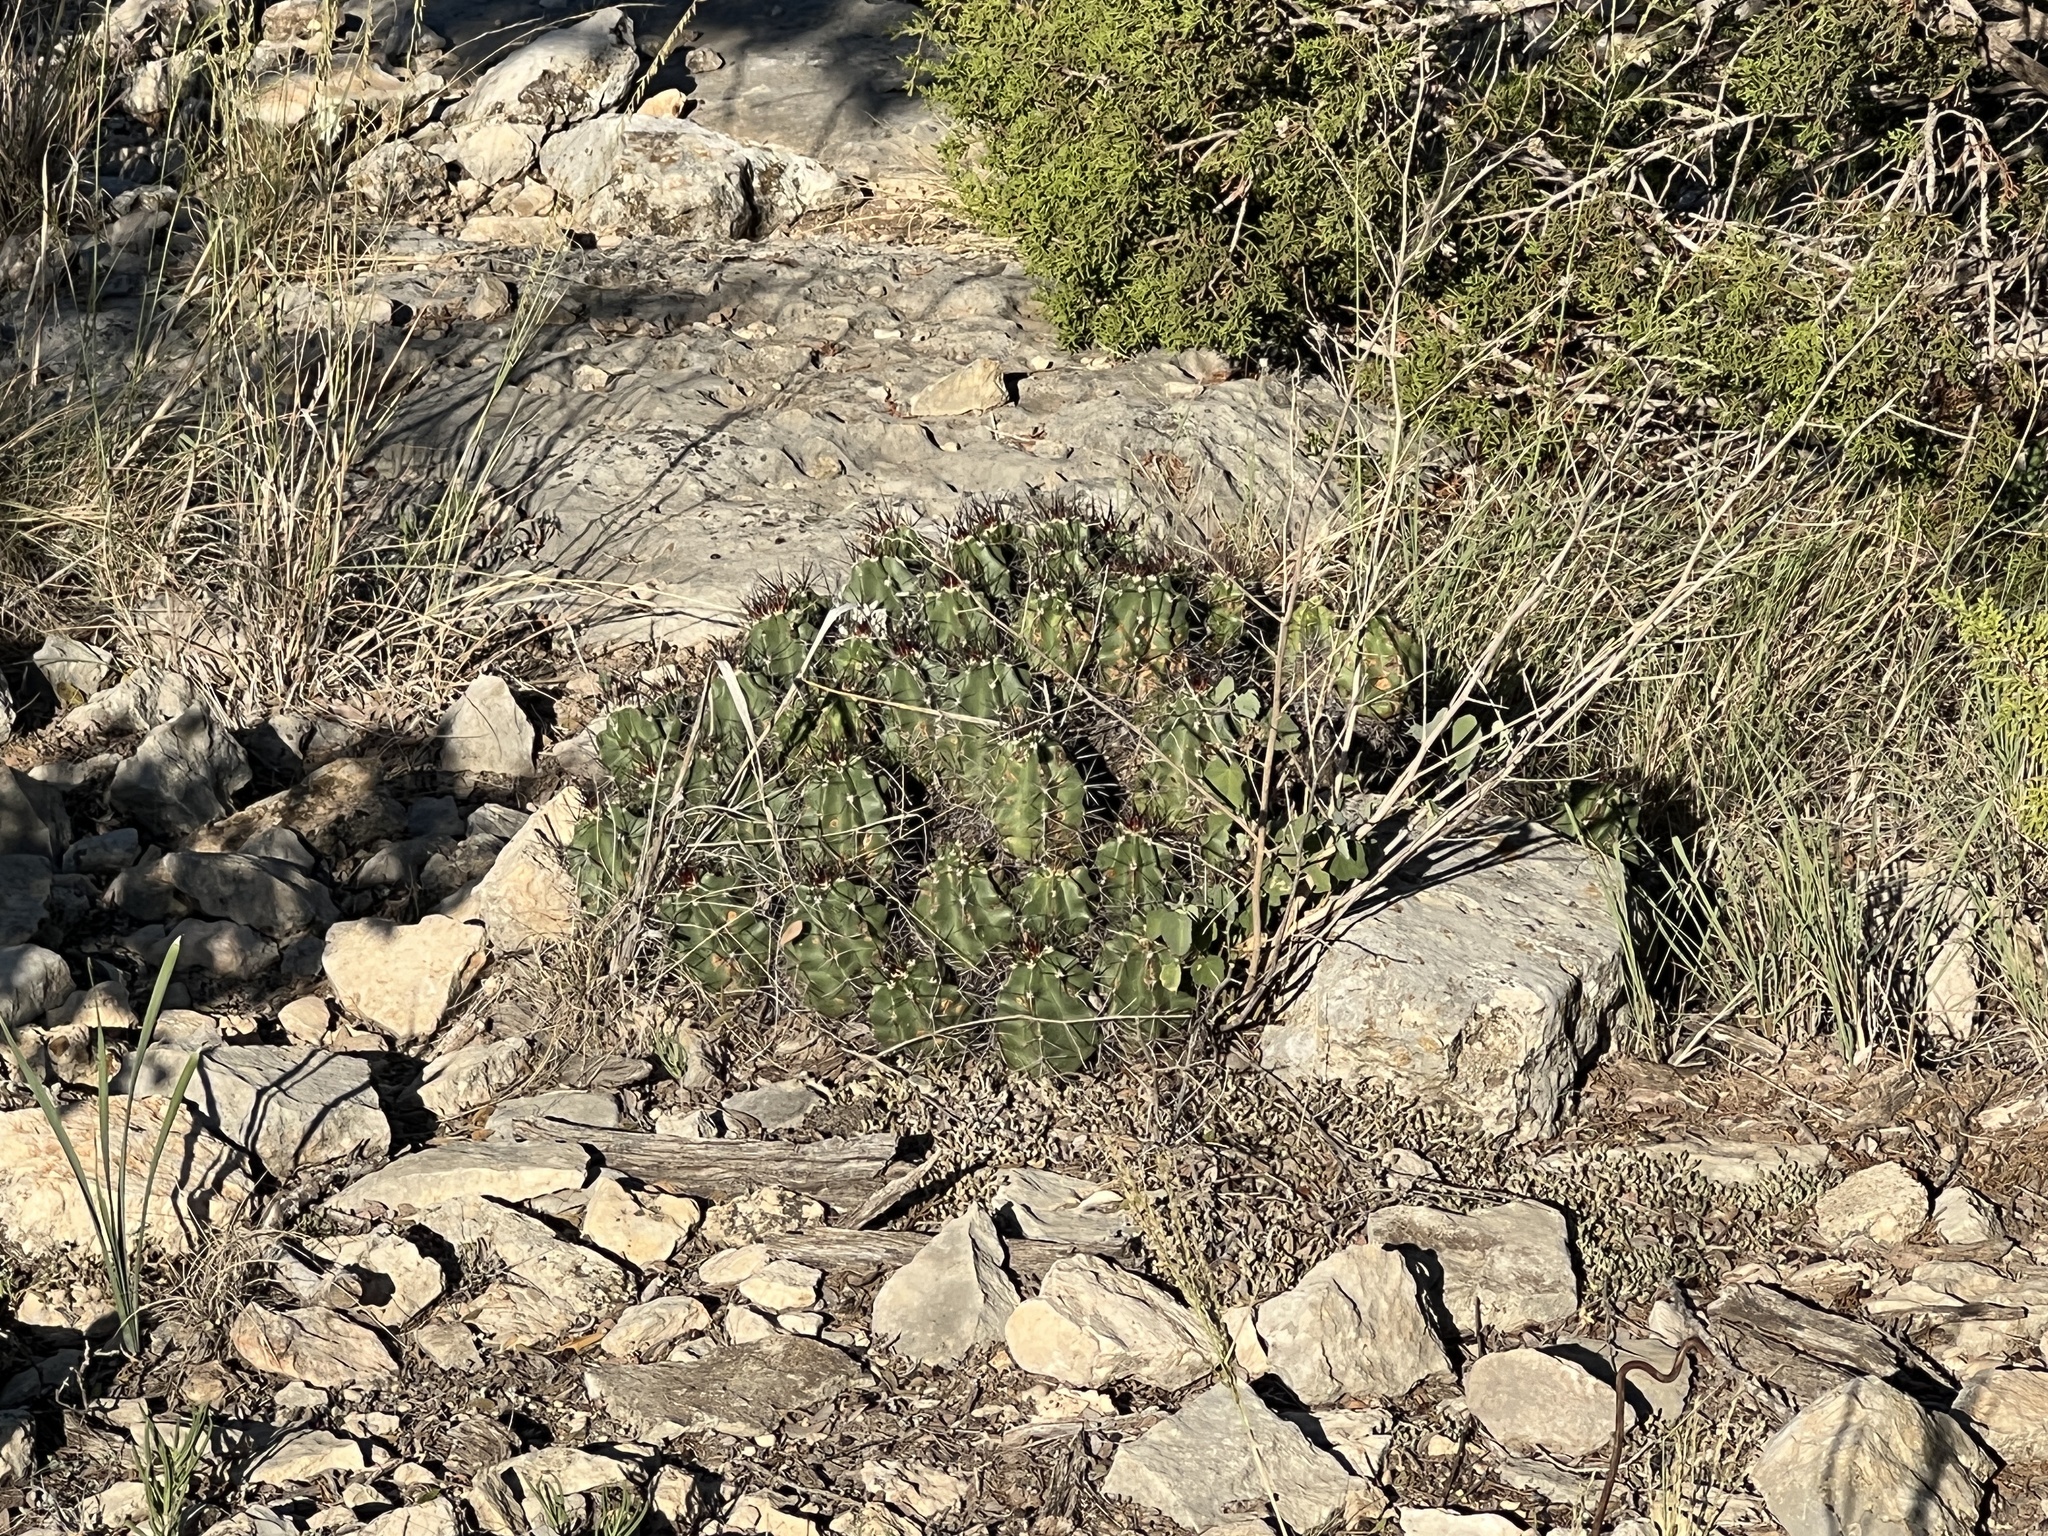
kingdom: Plantae
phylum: Tracheophyta
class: Magnoliopsida
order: Caryophyllales
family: Cactaceae
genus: Echinocereus
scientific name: Echinocereus coccineus
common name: Scarlet hedgehog cactus
